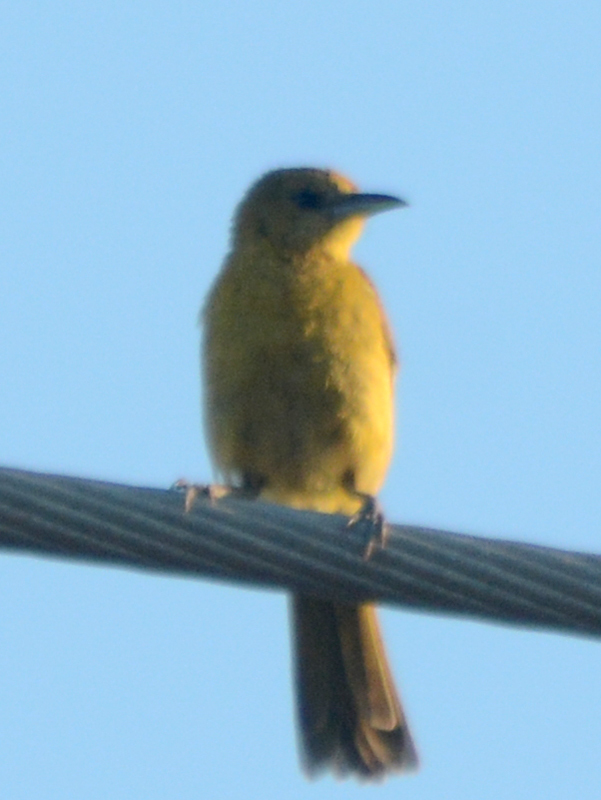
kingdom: Animalia
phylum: Chordata
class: Aves
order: Passeriformes
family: Tyrannidae
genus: Tyrannus
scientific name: Tyrannus vociferans
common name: Cassin's kingbird
